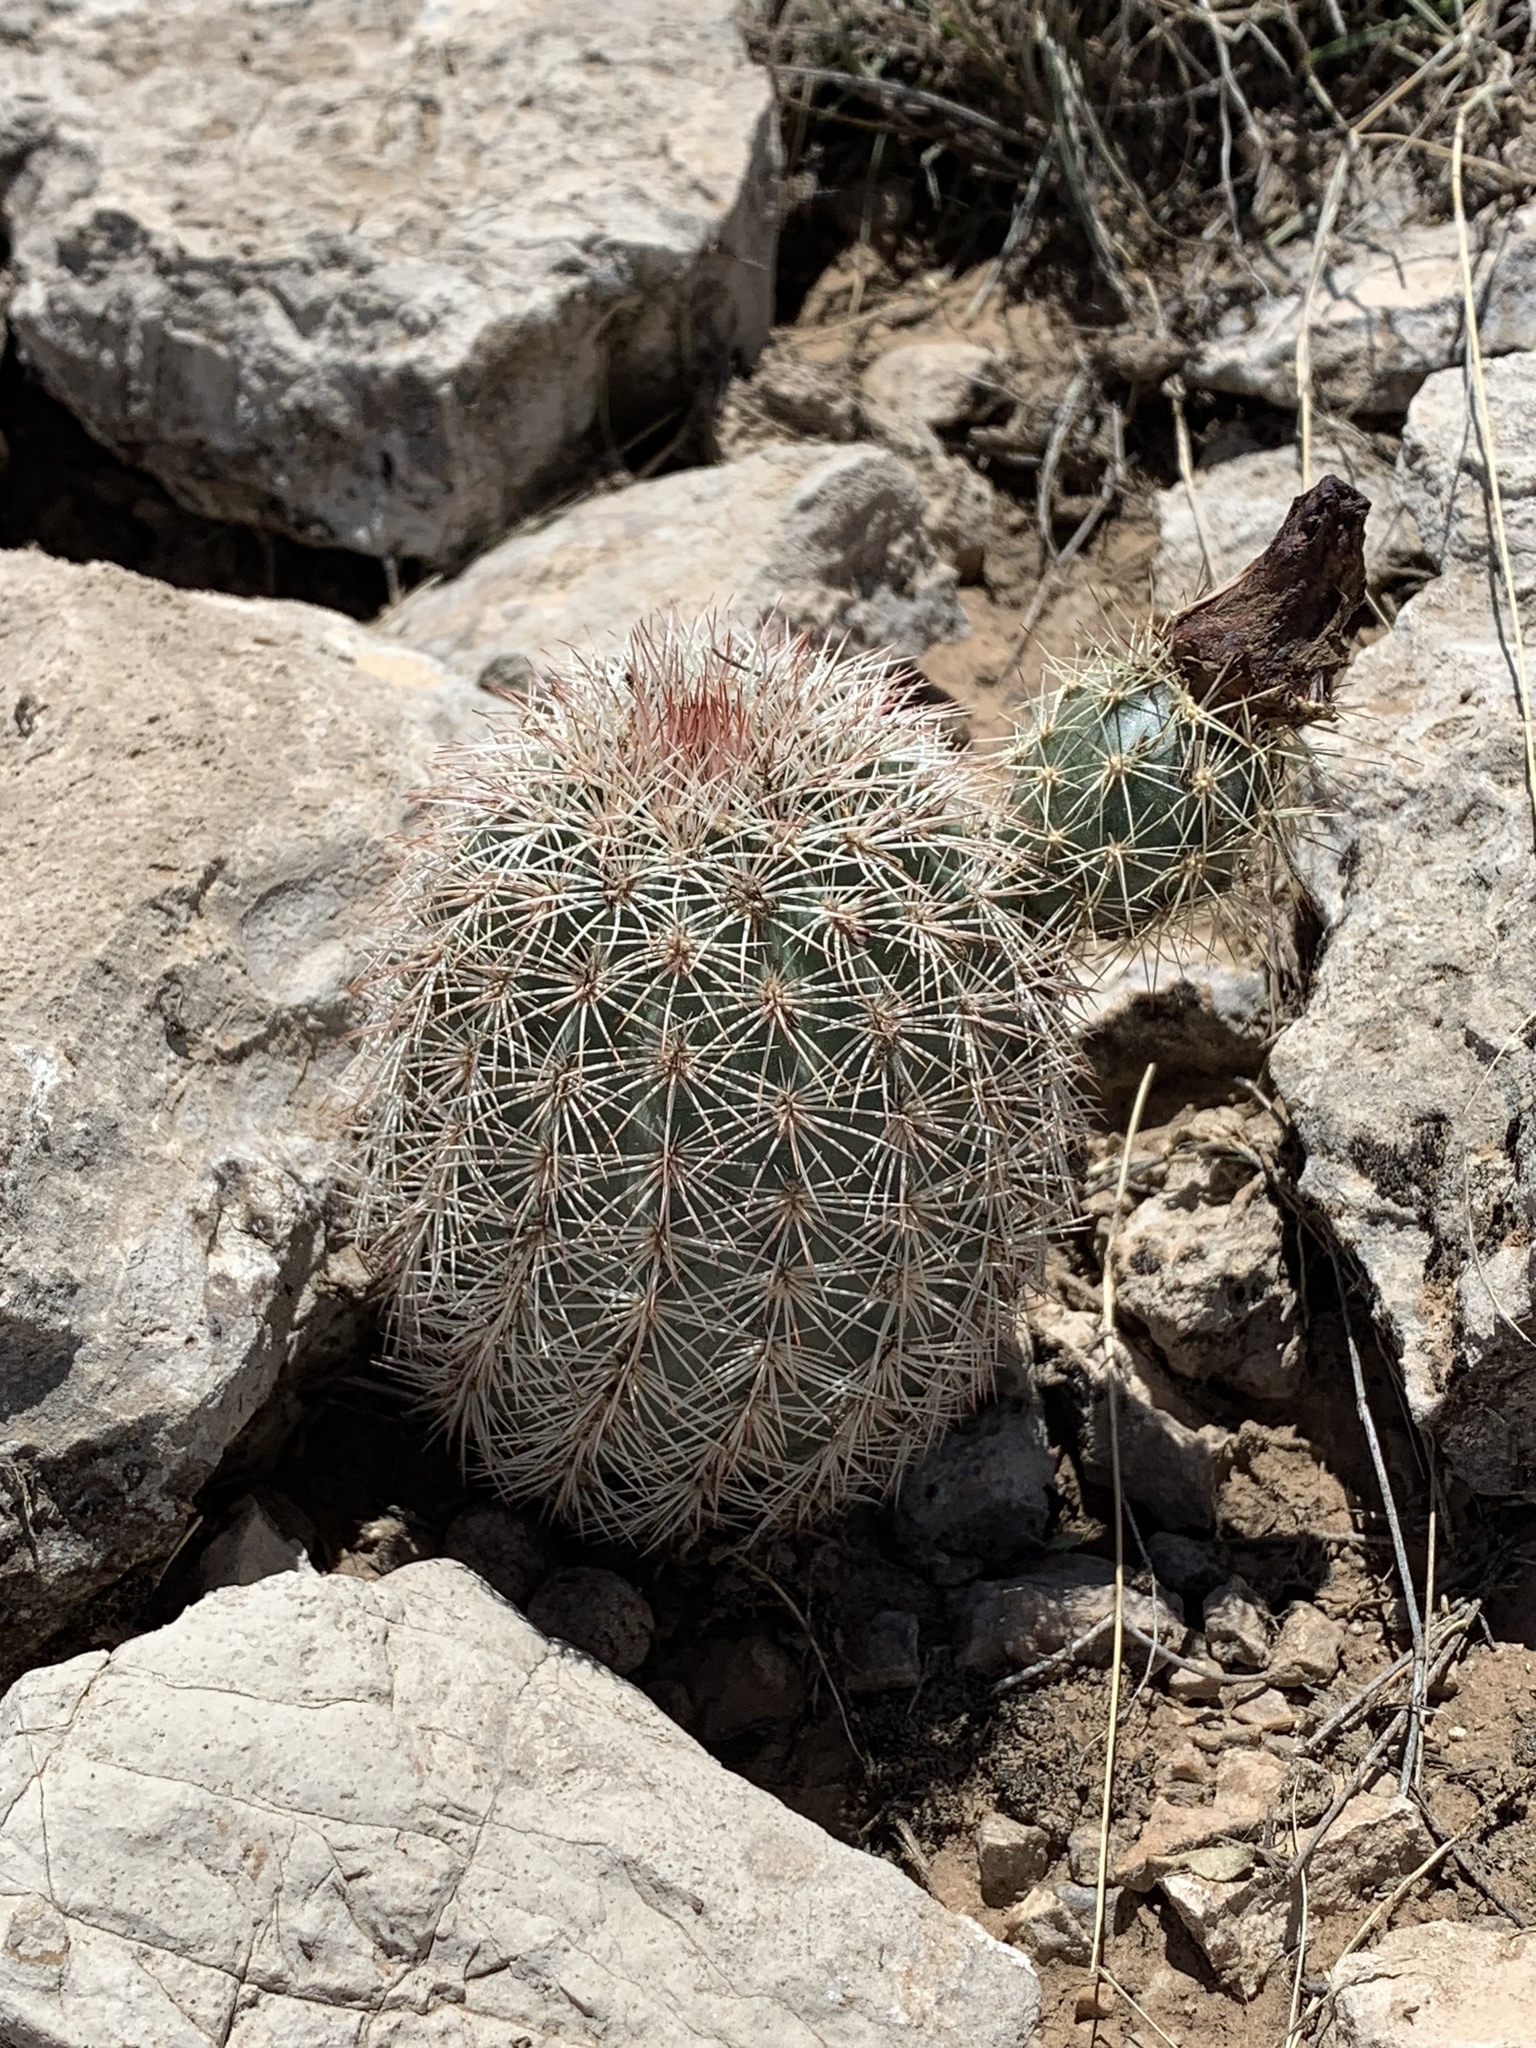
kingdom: Plantae
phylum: Tracheophyta
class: Magnoliopsida
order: Caryophyllales
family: Cactaceae
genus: Echinocereus
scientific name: Echinocereus dasyacanthus
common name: Spiny hedgehog cactus
